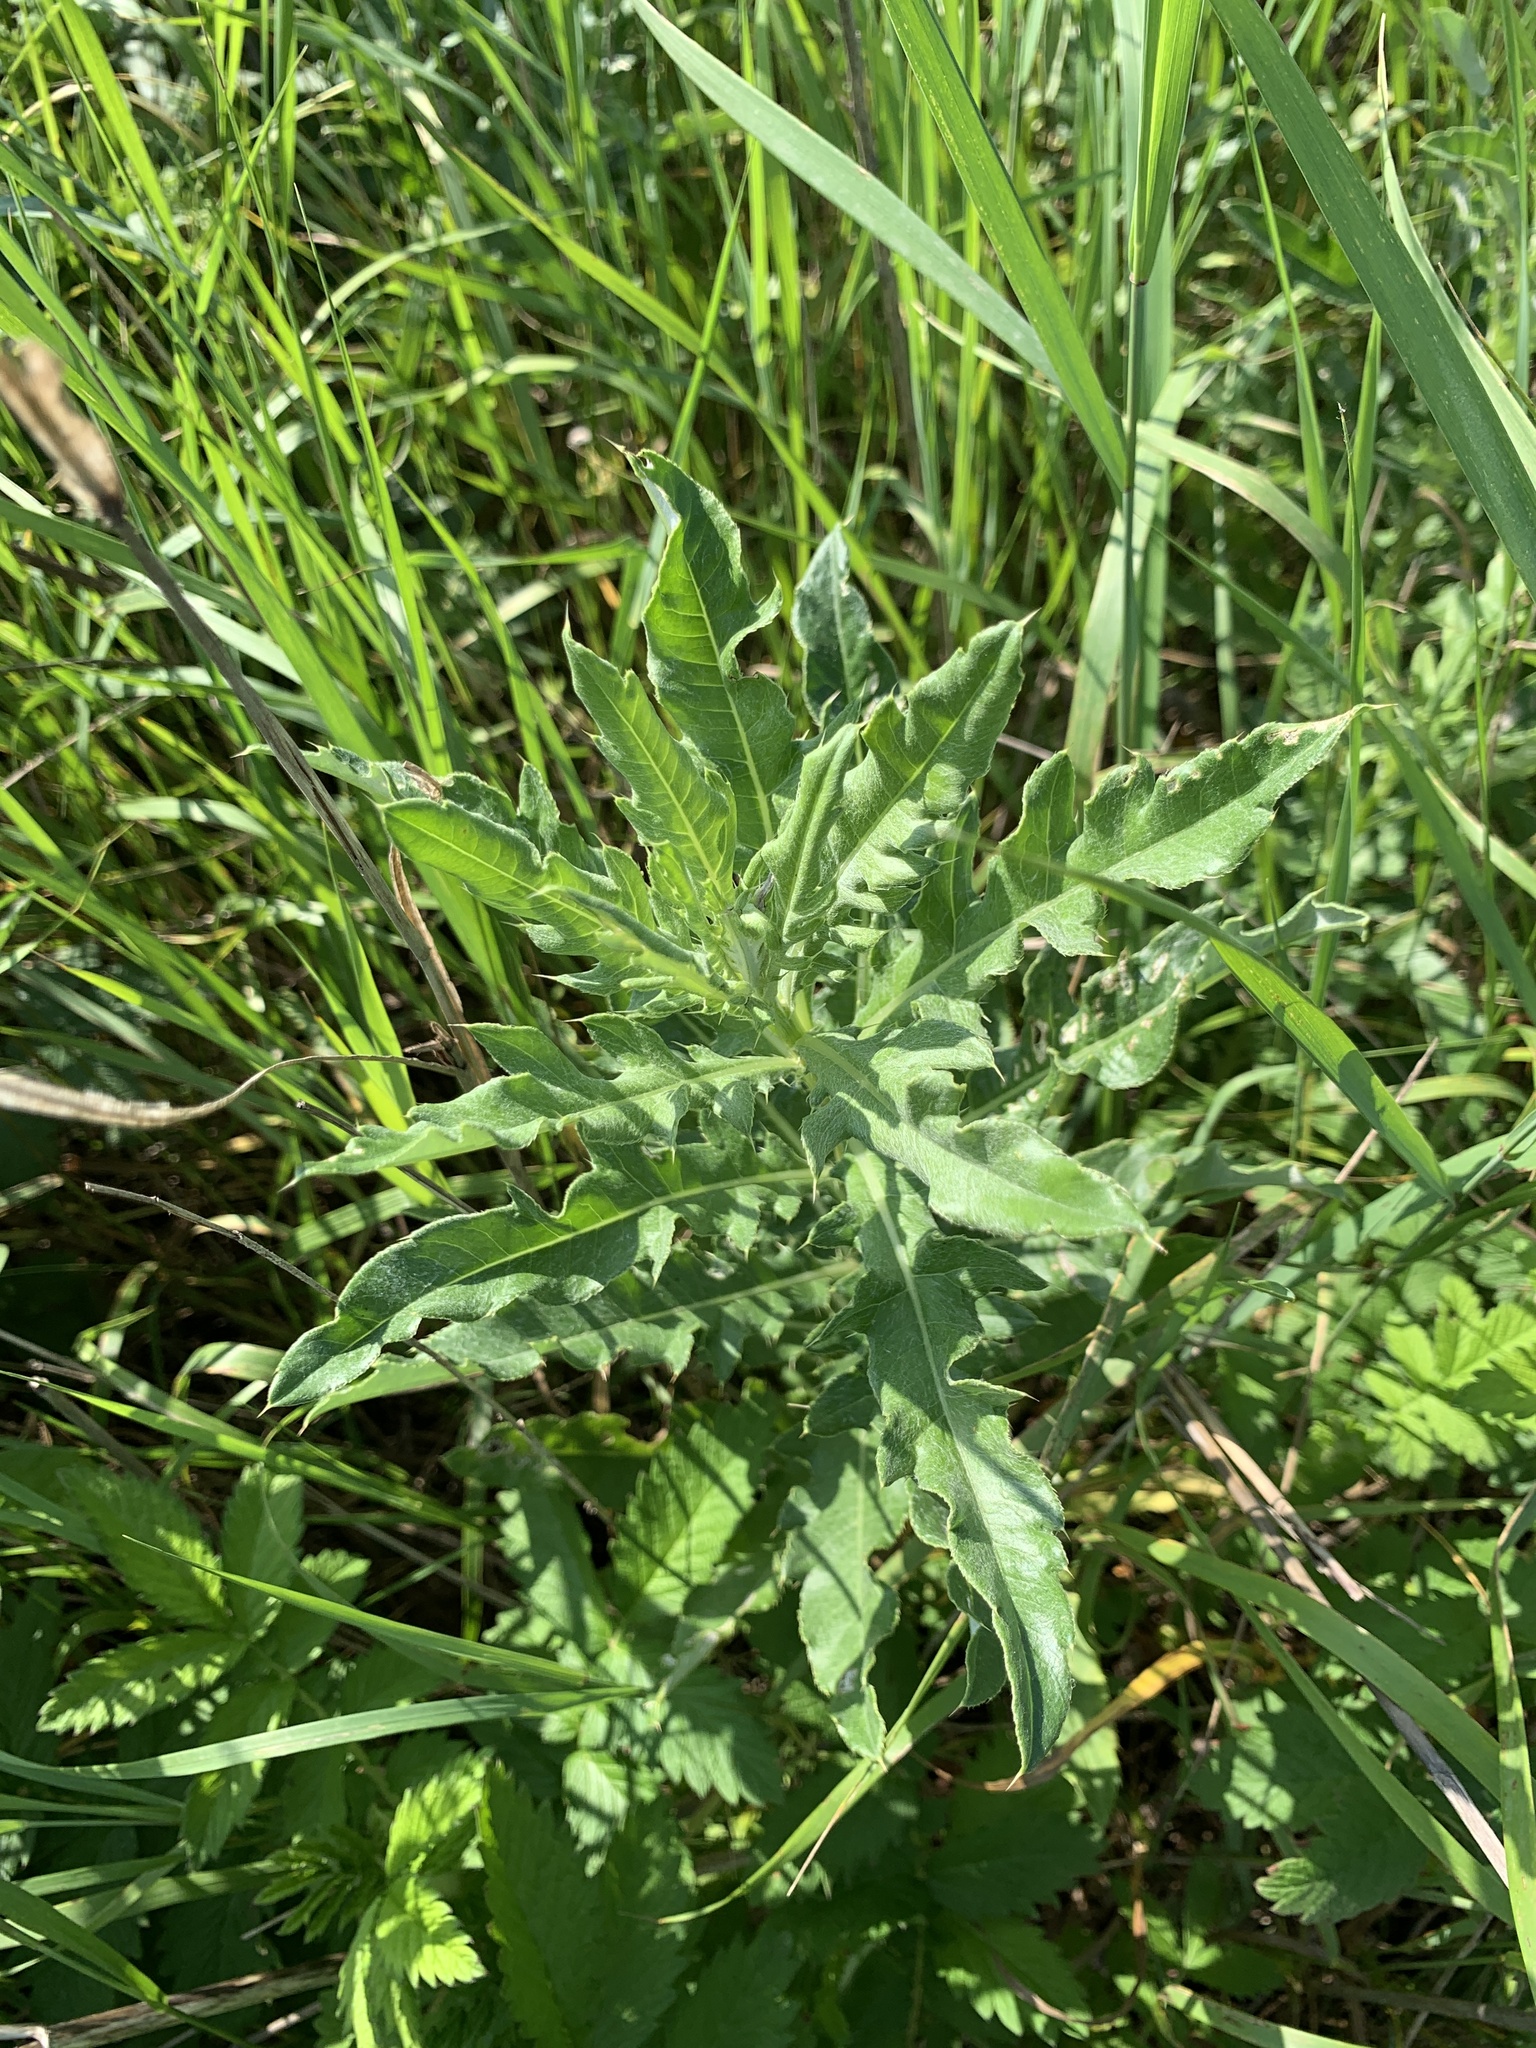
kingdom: Plantae
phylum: Tracheophyta
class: Magnoliopsida
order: Asterales
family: Asteraceae
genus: Cirsium
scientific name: Cirsium arvense
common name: Creeping thistle
